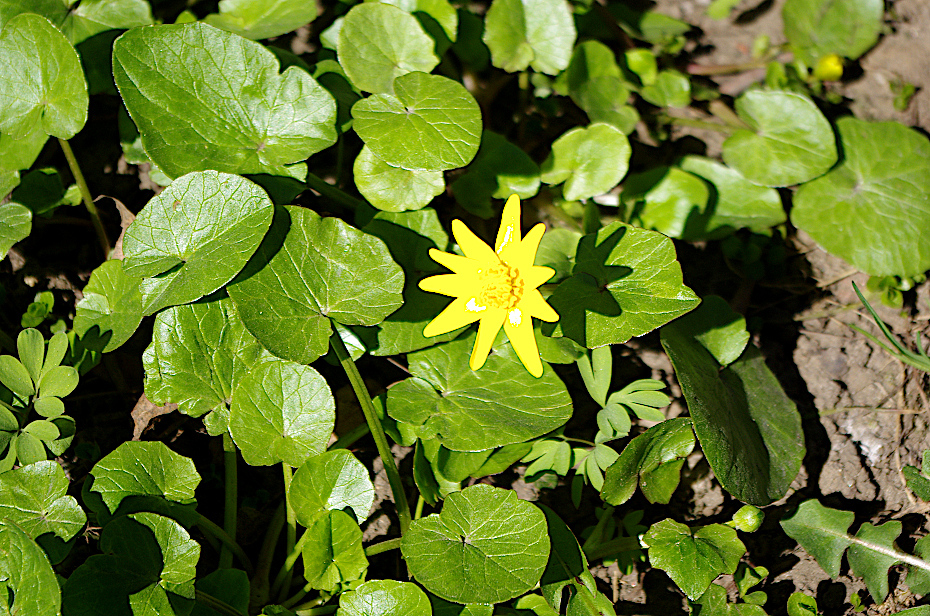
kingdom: Plantae
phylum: Tracheophyta
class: Magnoliopsida
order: Ranunculales
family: Ranunculaceae
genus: Ficaria
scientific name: Ficaria verna
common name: Lesser celandine
